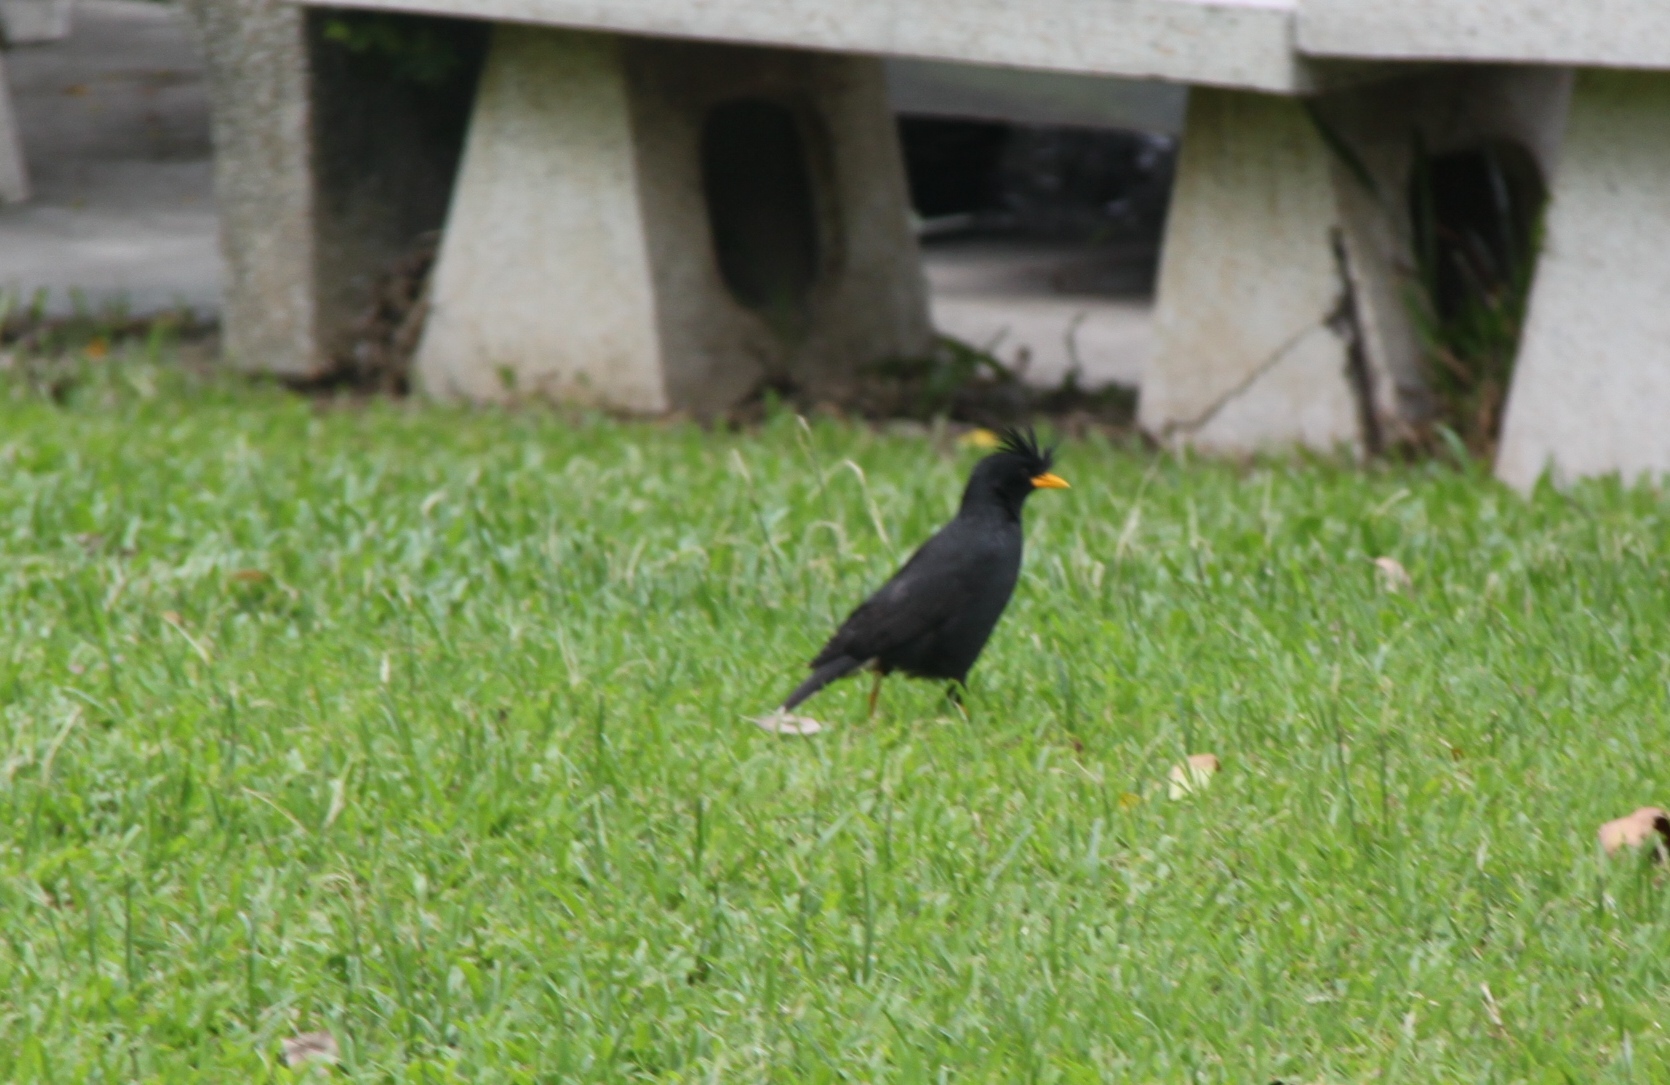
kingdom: Animalia
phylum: Chordata
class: Aves
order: Passeriformes
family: Sturnidae
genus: Acridotheres
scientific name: Acridotheres grandis
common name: Great myna
